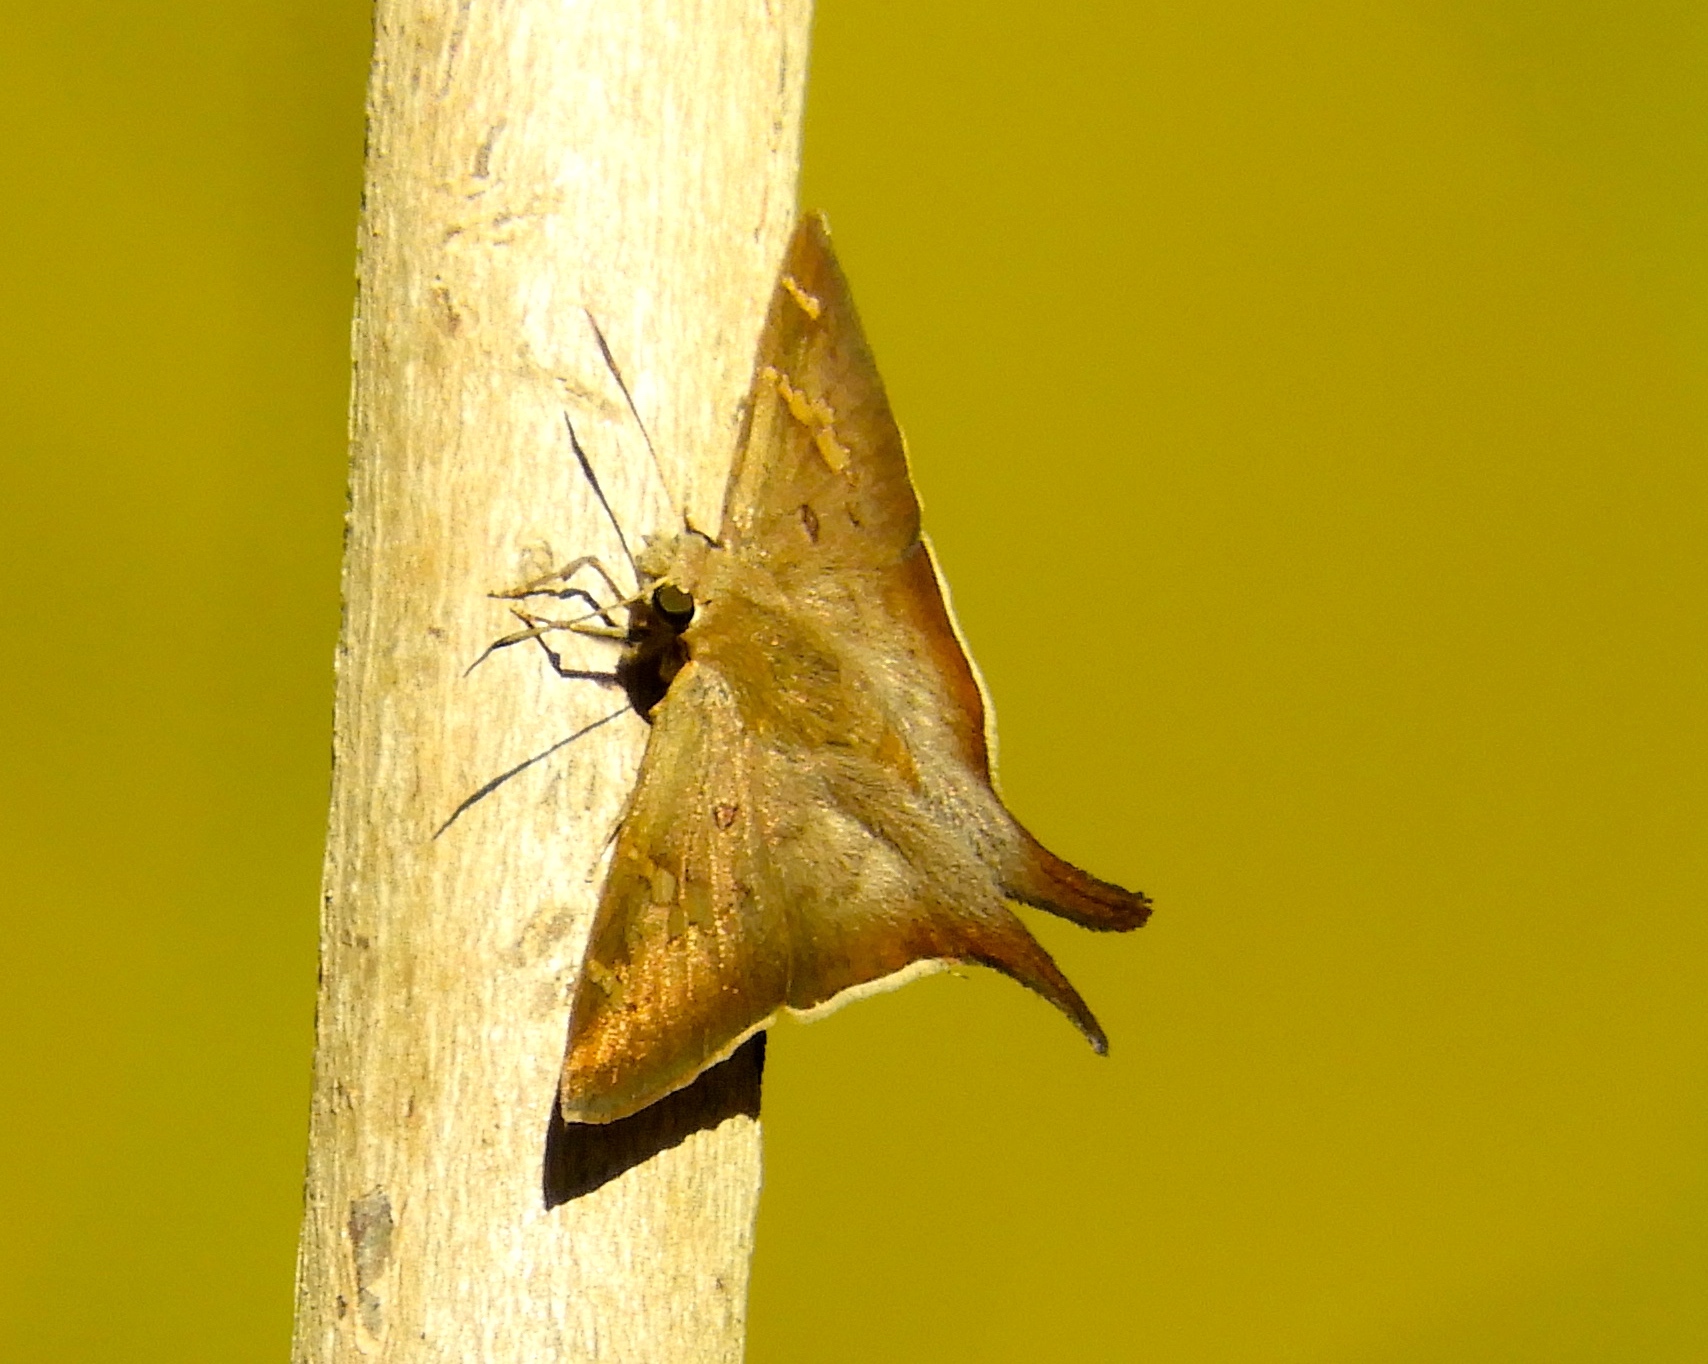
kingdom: Animalia
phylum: Arthropoda
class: Insecta
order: Lepidoptera
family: Hesperiidae
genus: Ectomis
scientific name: Ectomis
